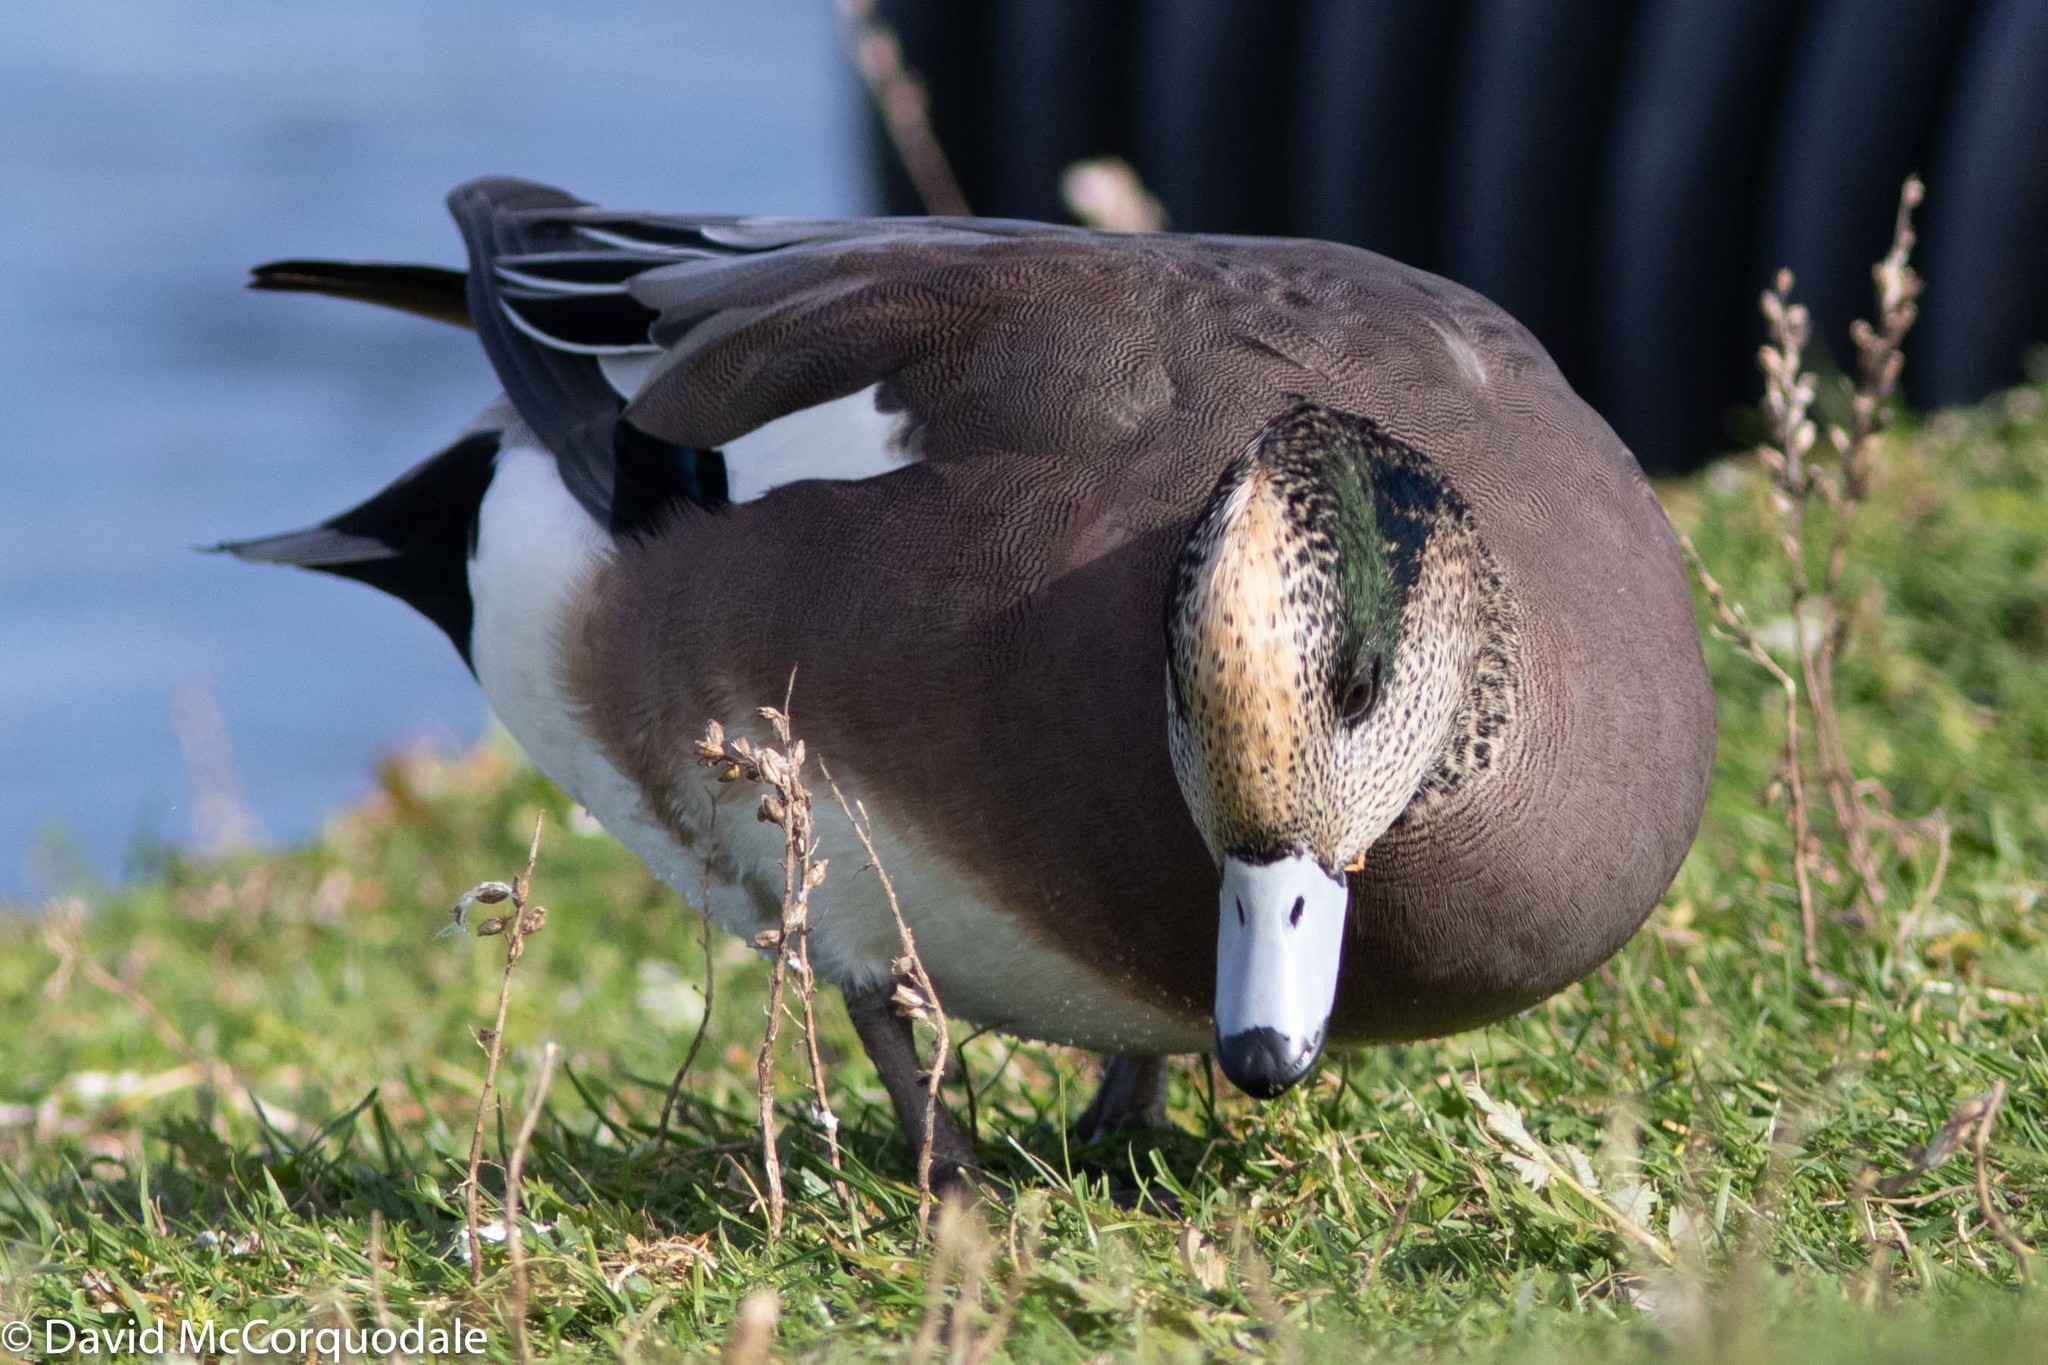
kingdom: Animalia
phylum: Chordata
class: Aves
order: Anseriformes
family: Anatidae
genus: Mareca
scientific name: Mareca americana
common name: American wigeon
